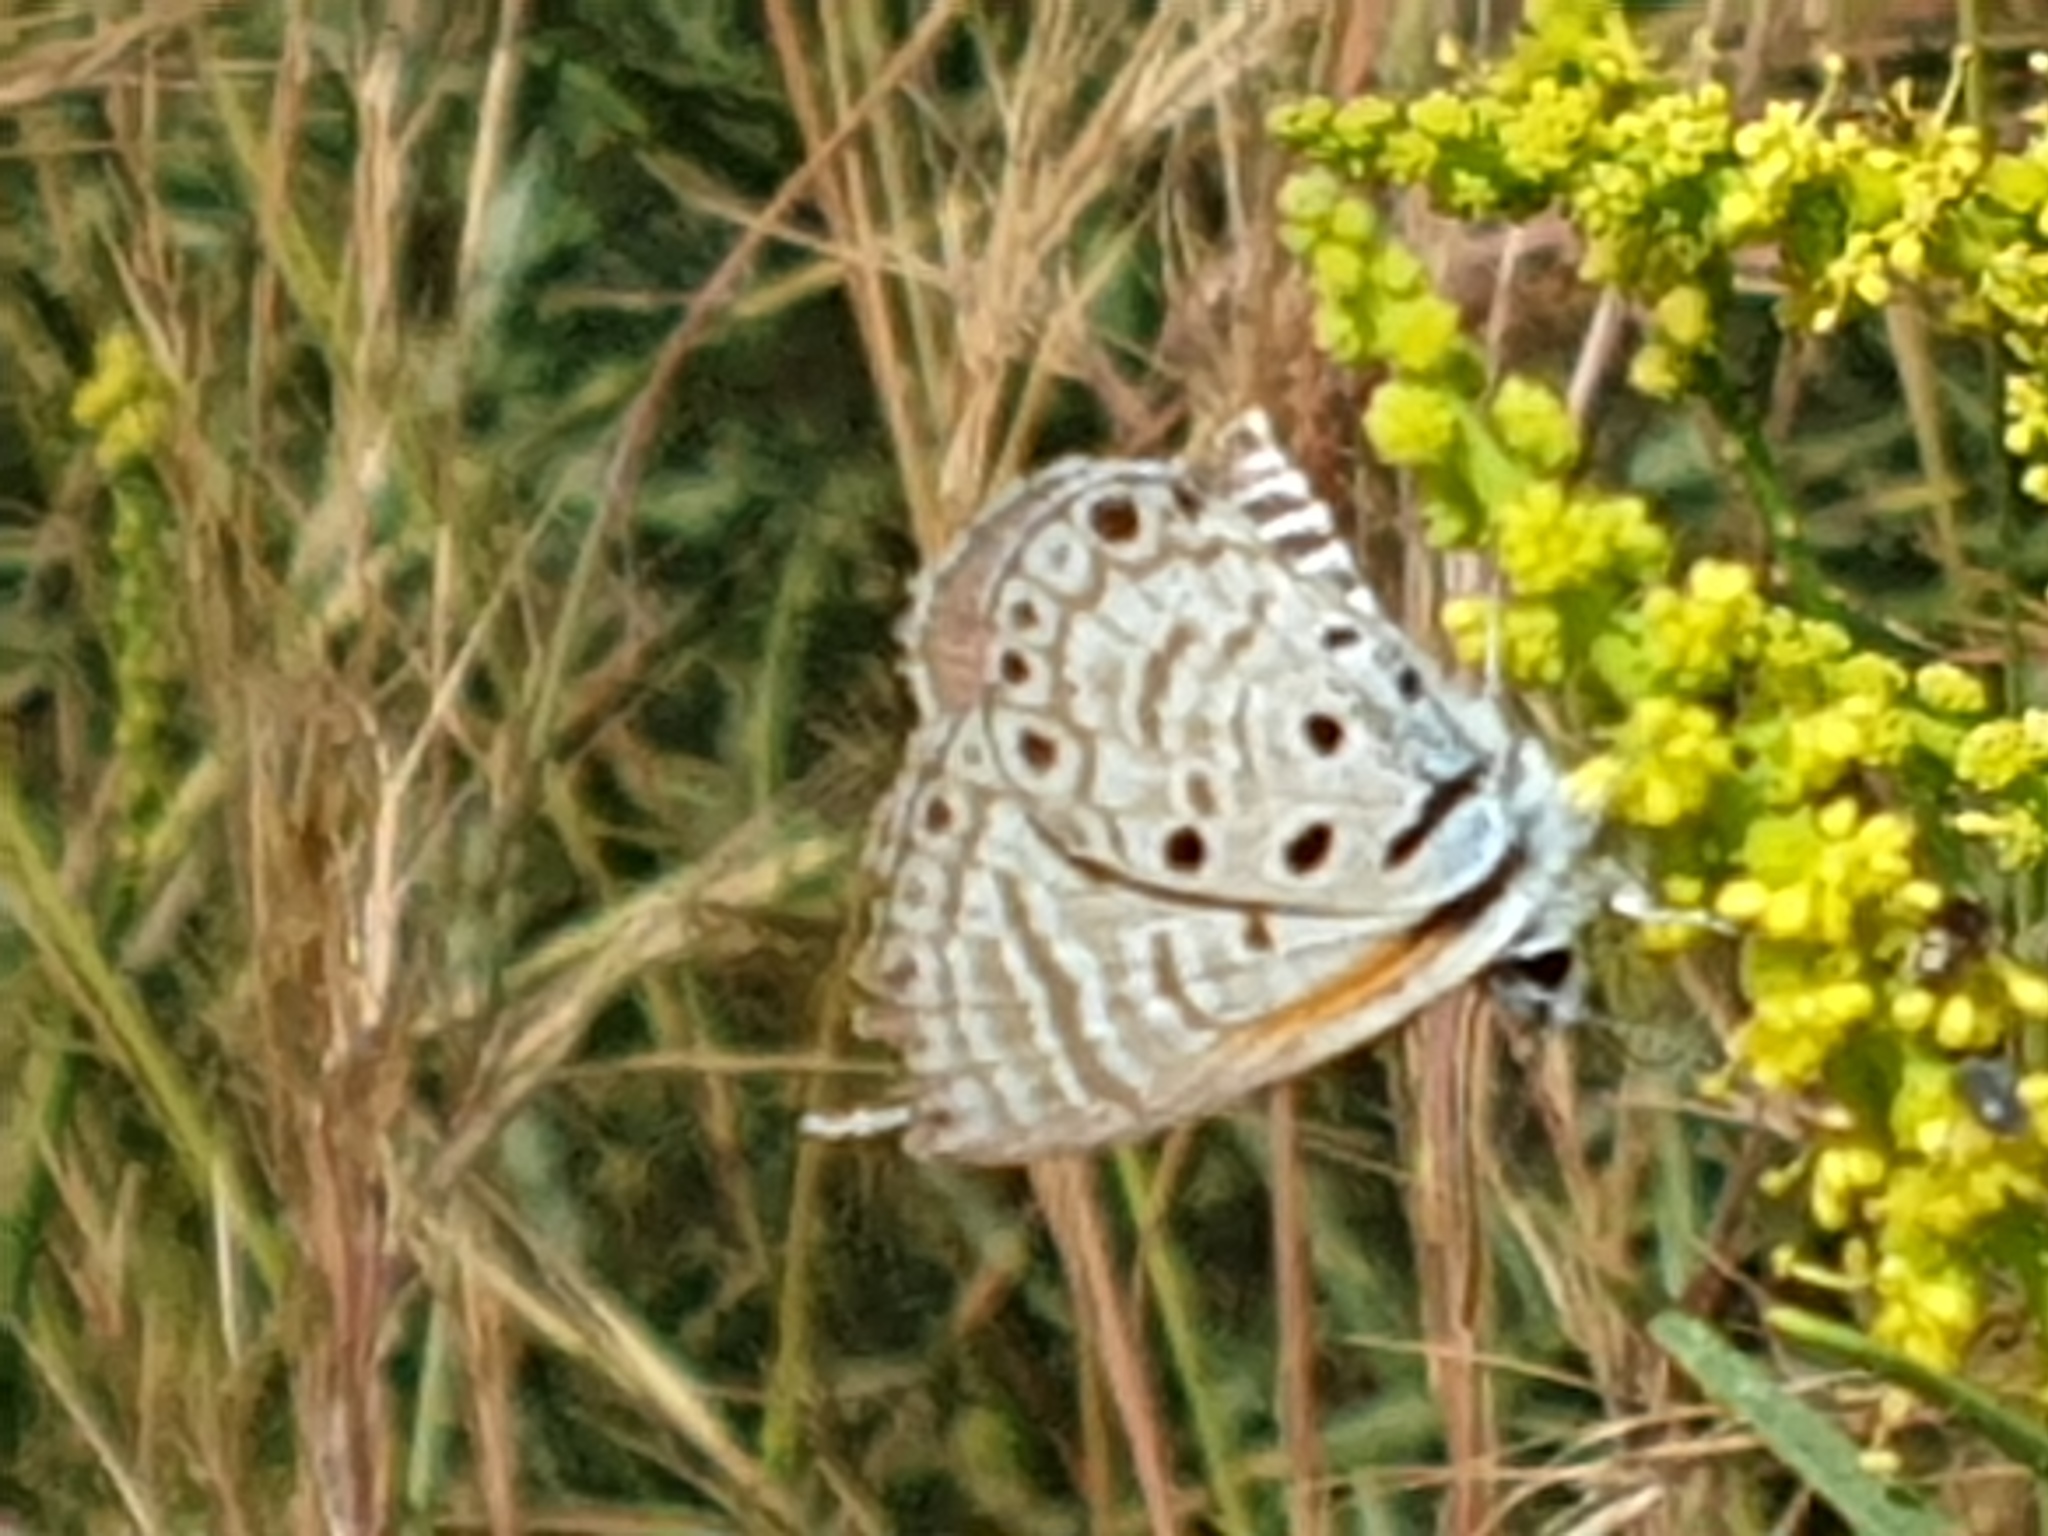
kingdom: Animalia
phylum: Arthropoda
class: Insecta
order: Lepidoptera
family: Lycaenidae
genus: Azanus
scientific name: Azanus jesous
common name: African babul blue
